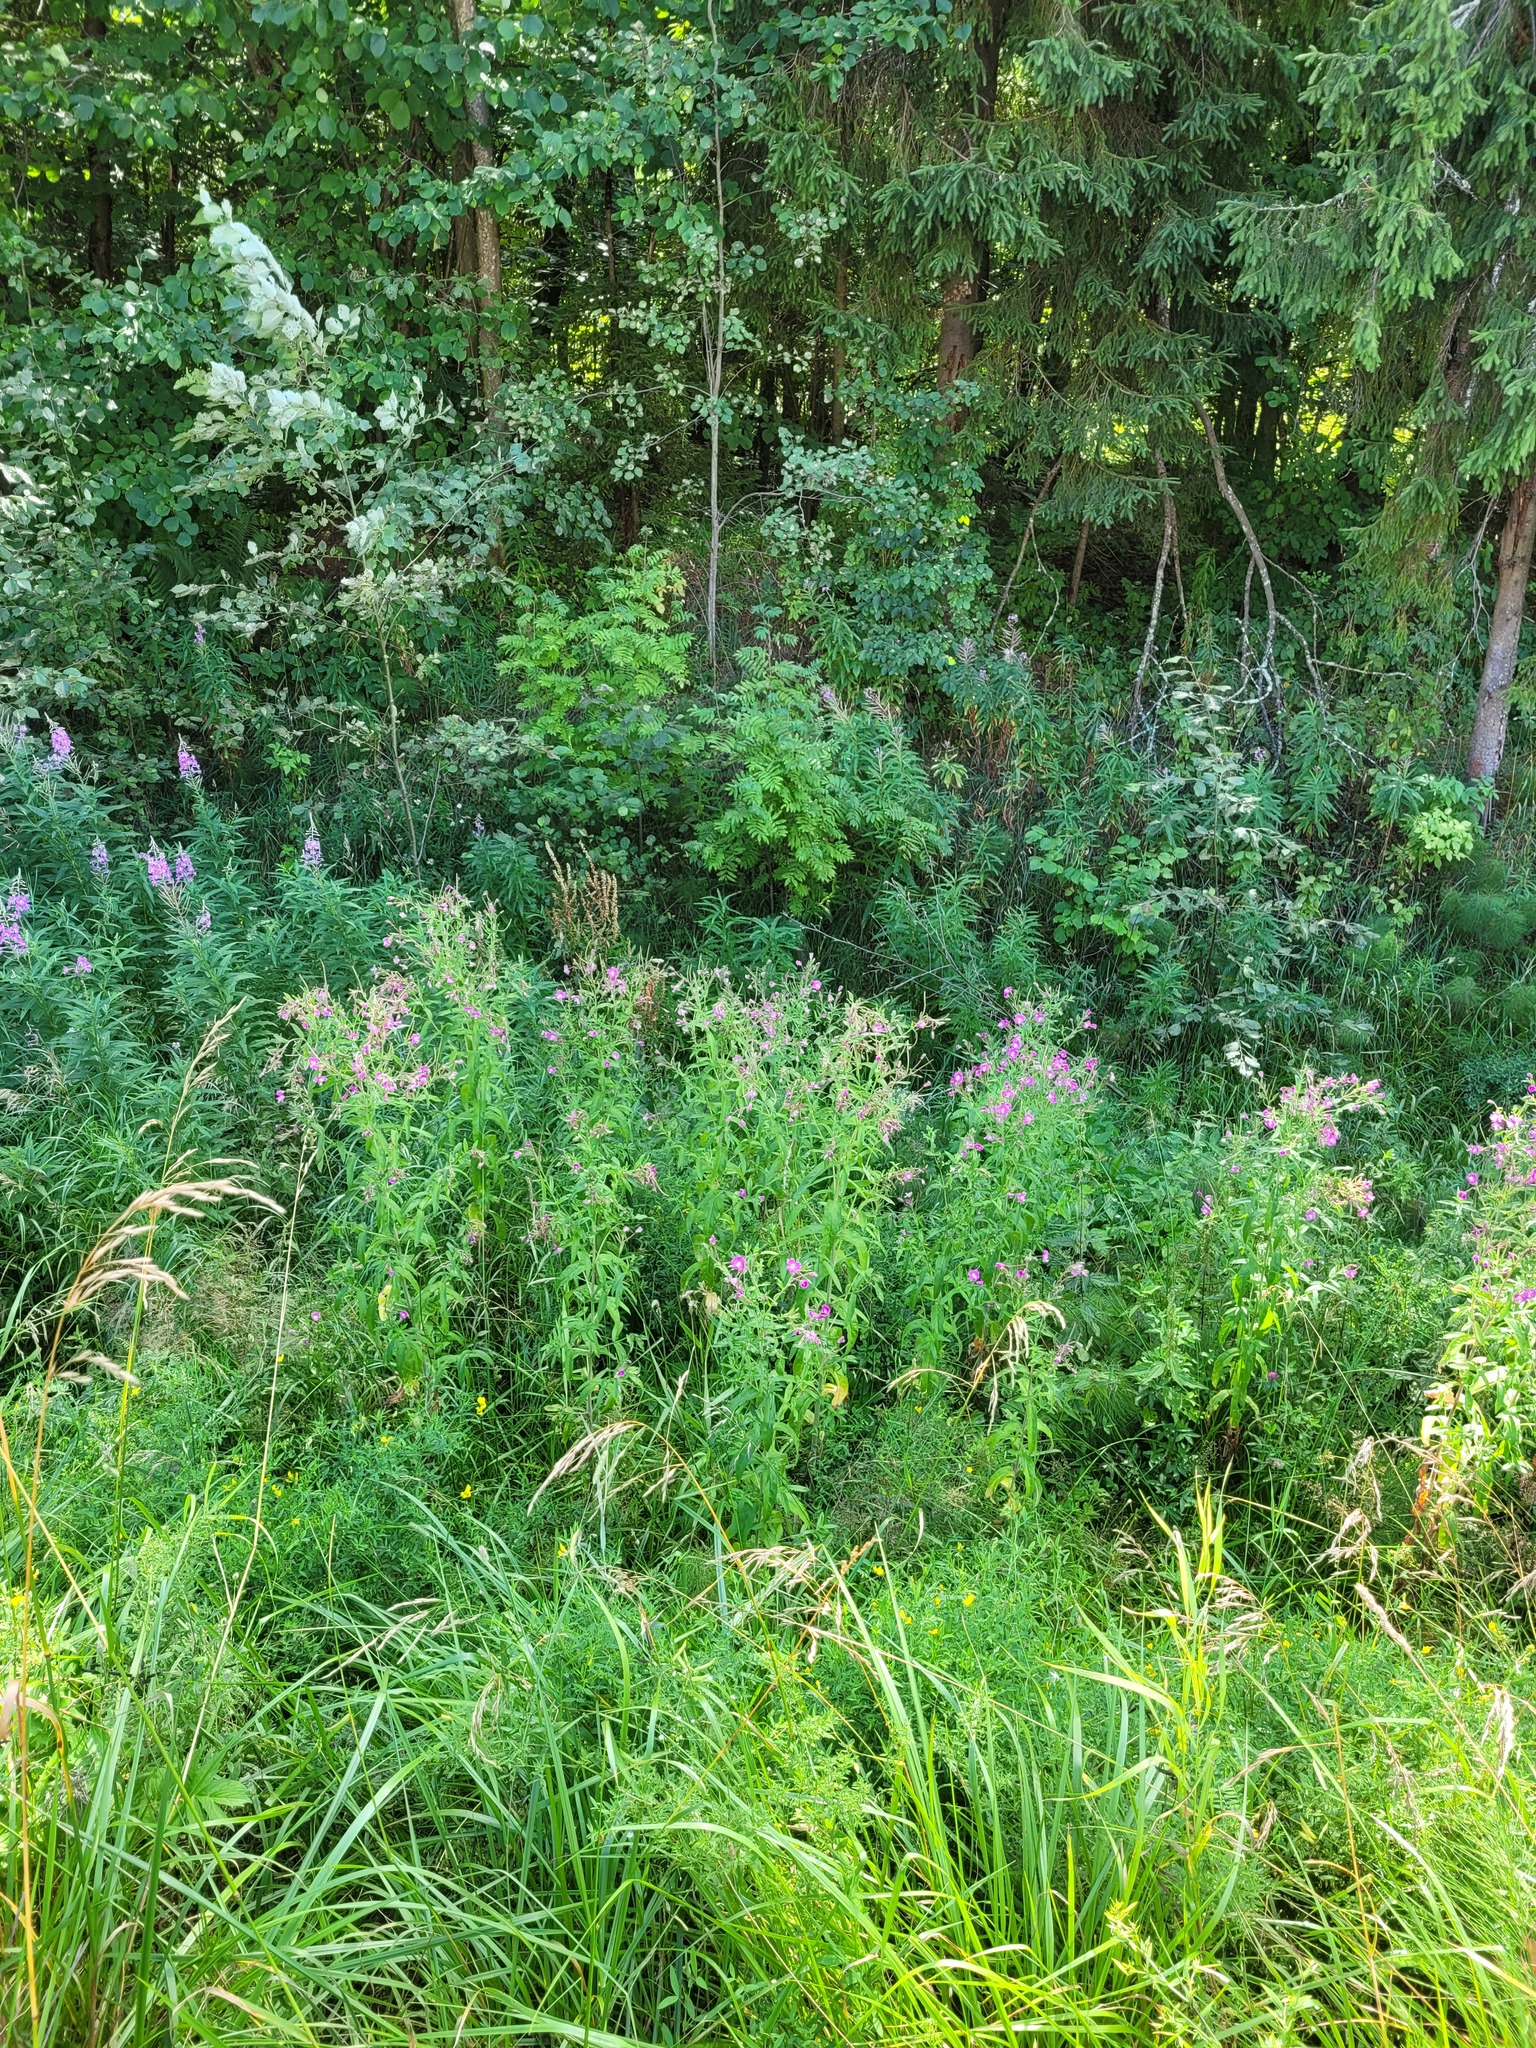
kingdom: Plantae
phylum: Tracheophyta
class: Magnoliopsida
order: Myrtales
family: Onagraceae
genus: Chamaenerion
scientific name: Chamaenerion angustifolium
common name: Fireweed
